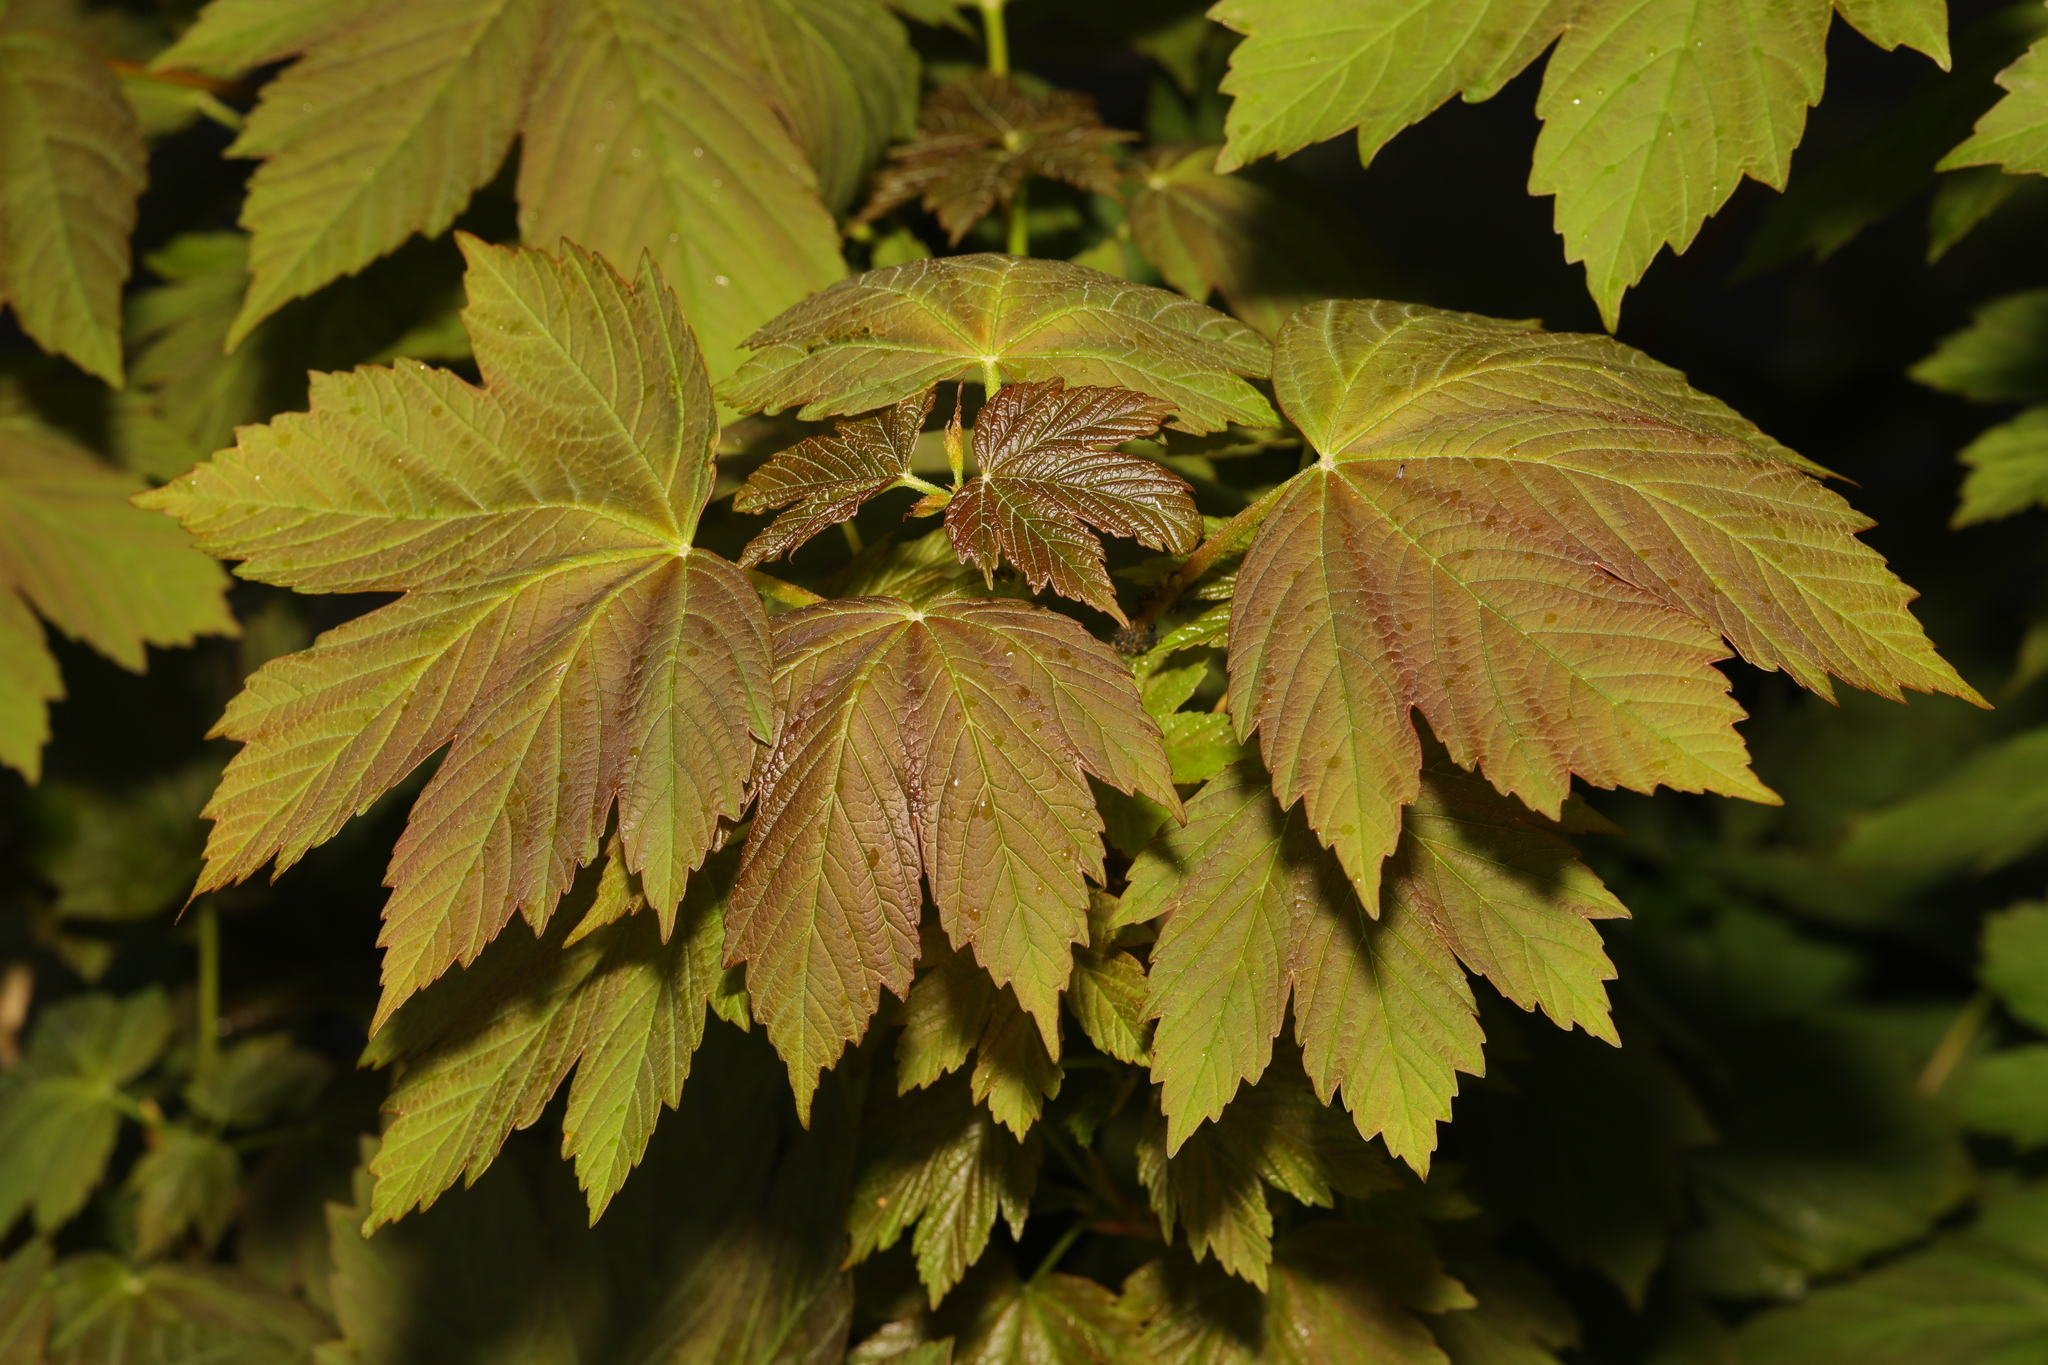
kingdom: Plantae
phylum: Tracheophyta
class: Magnoliopsida
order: Sapindales
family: Sapindaceae
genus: Acer
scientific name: Acer pseudoplatanus
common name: Sycamore
